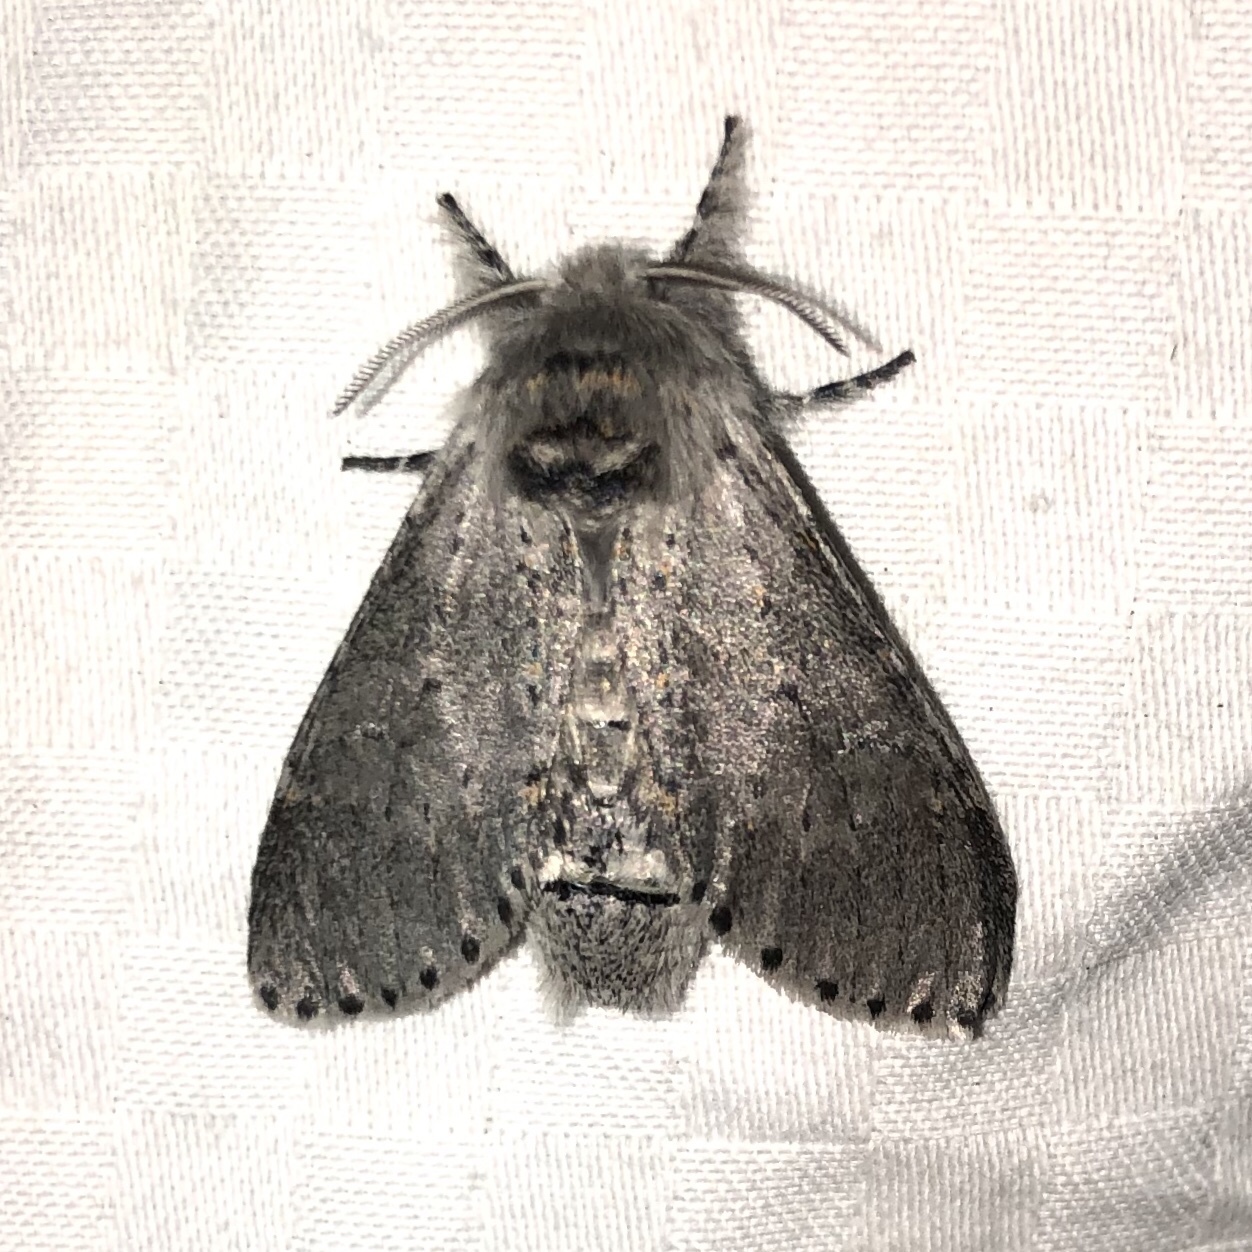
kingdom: Animalia
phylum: Arthropoda
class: Insecta
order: Lepidoptera
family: Notodontidae
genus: Furcula
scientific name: Furcula cinerea
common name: Gray furcula
